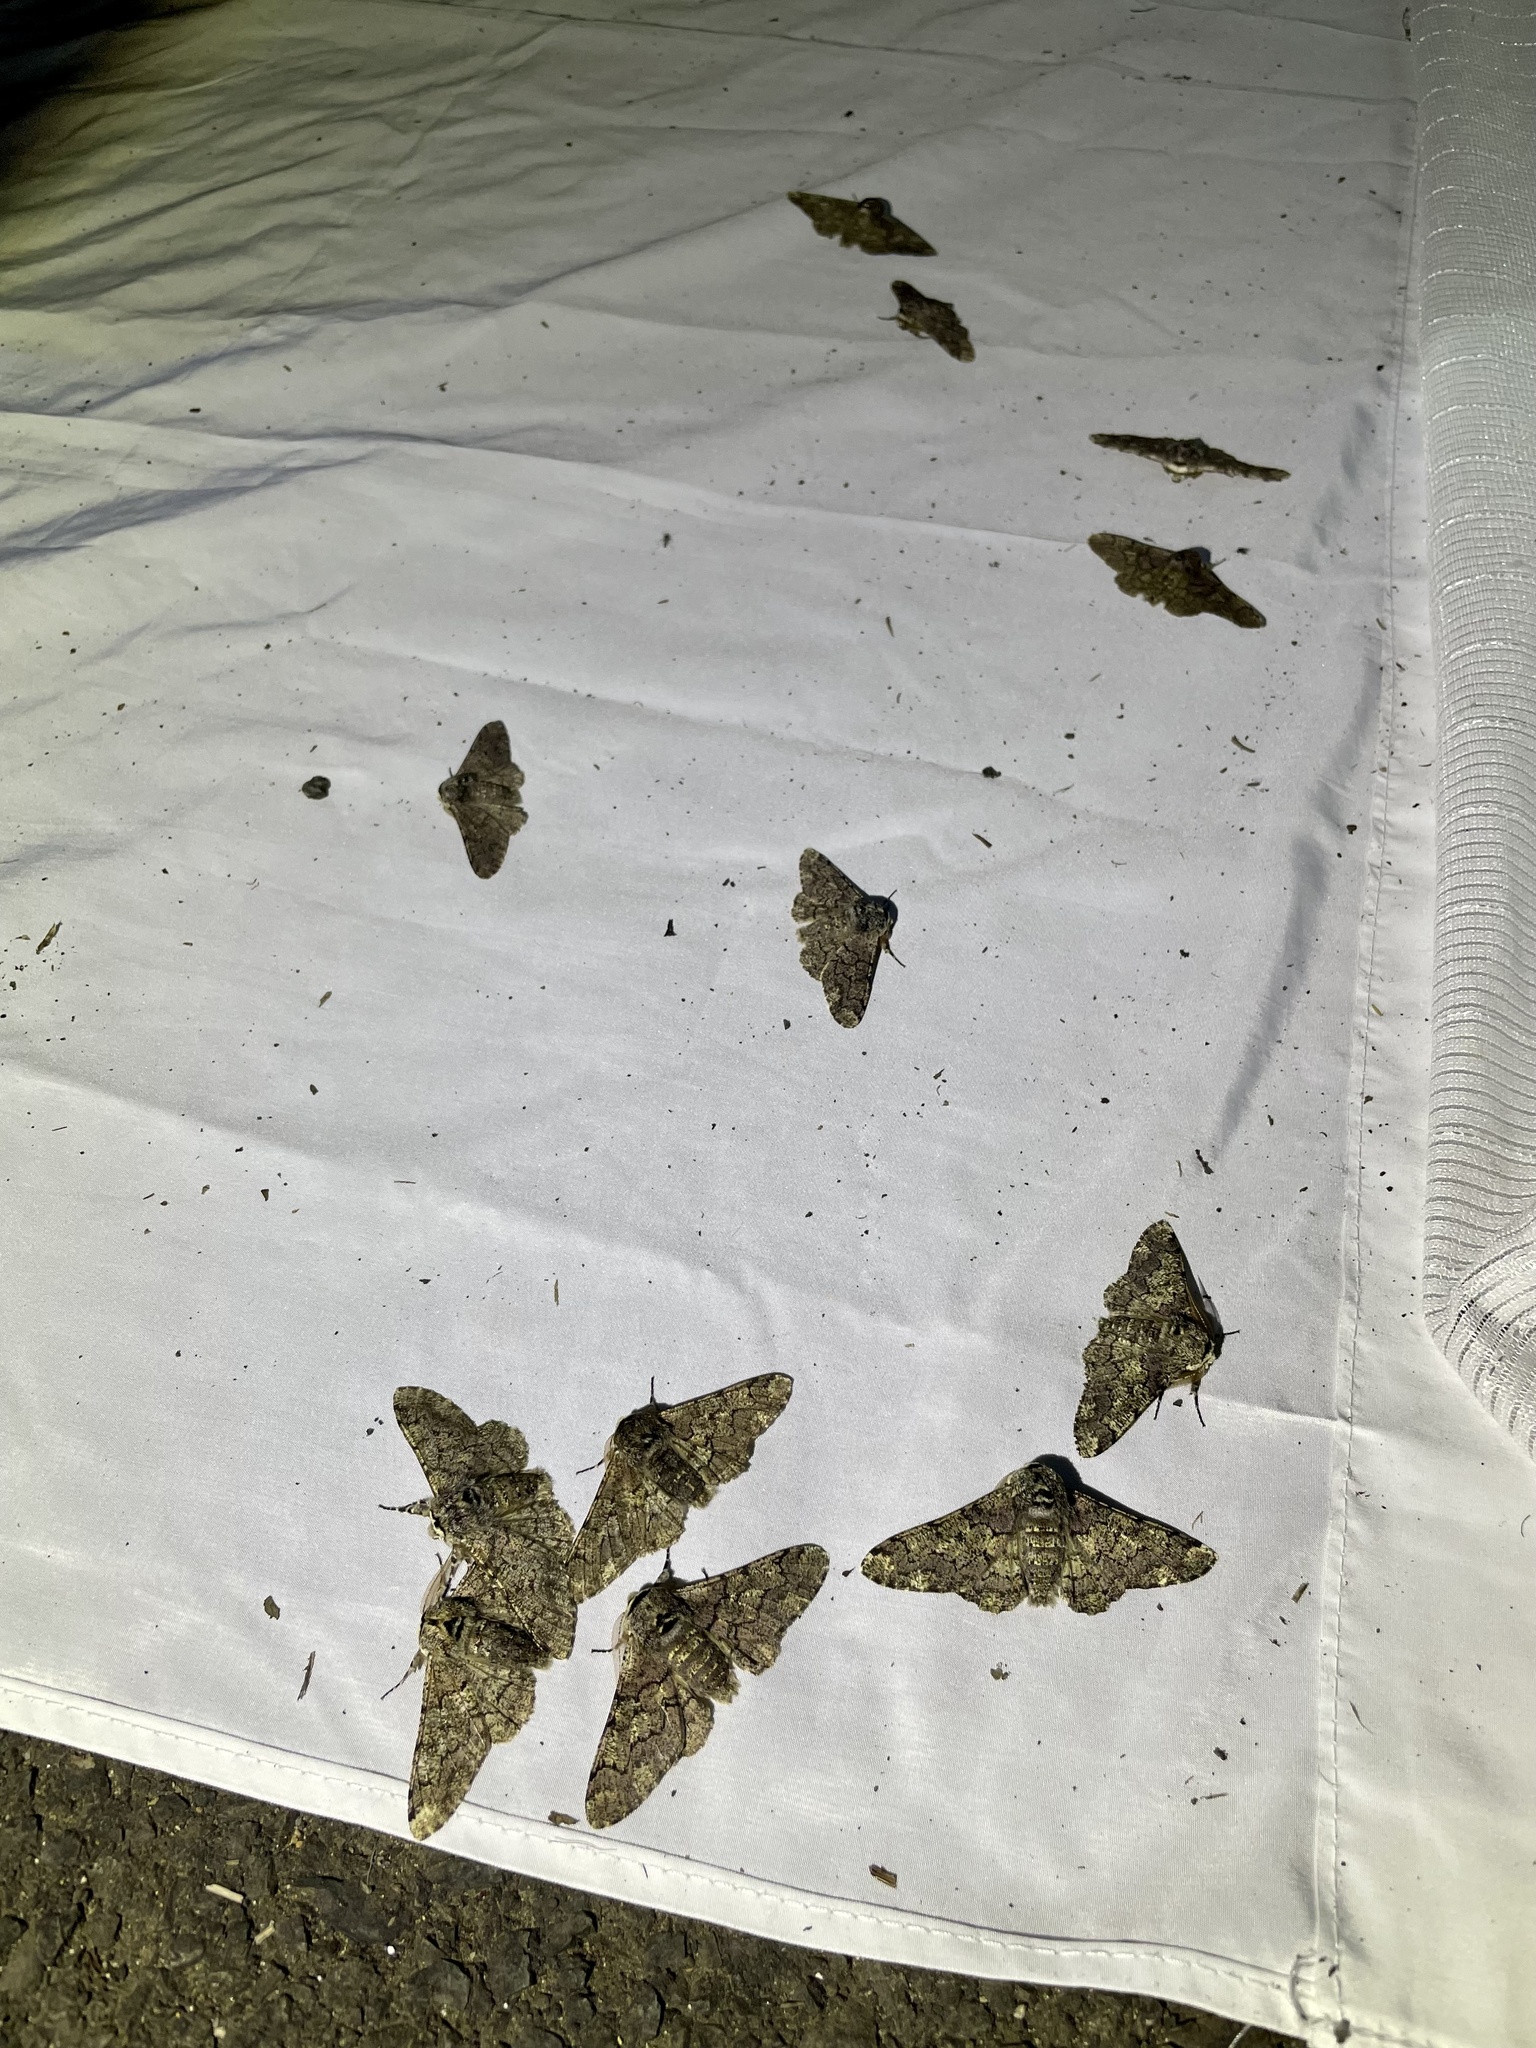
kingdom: Animalia
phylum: Arthropoda
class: Insecta
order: Lepidoptera
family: Geometridae
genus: Biston
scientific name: Biston robustum
